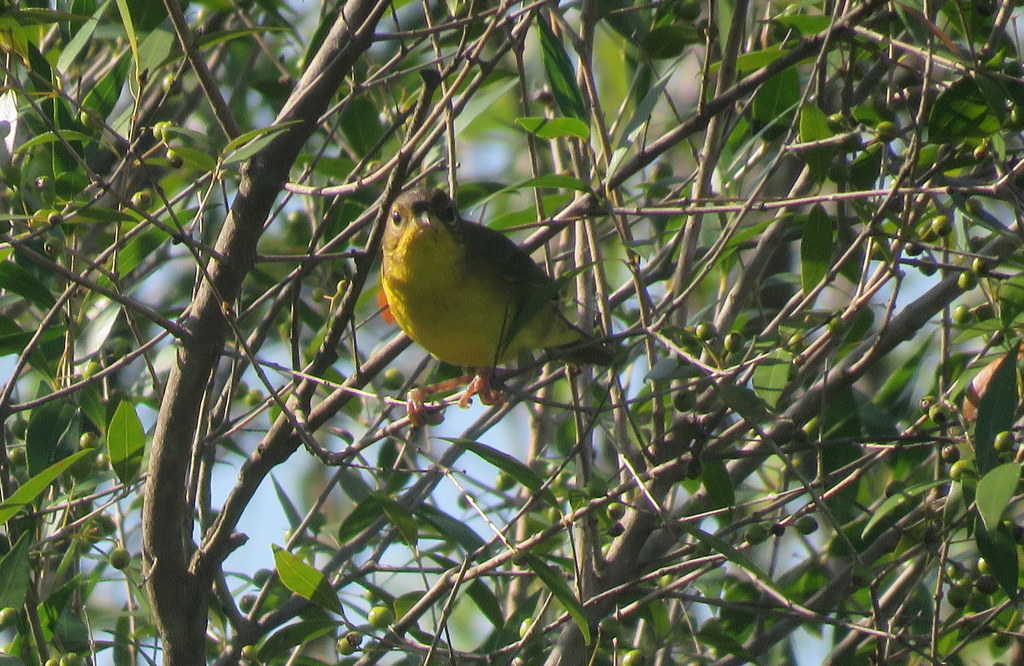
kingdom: Animalia
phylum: Chordata
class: Aves
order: Passeriformes
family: Parulidae
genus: Geothlypis
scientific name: Geothlypis velata
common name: Southern yellowthroat
